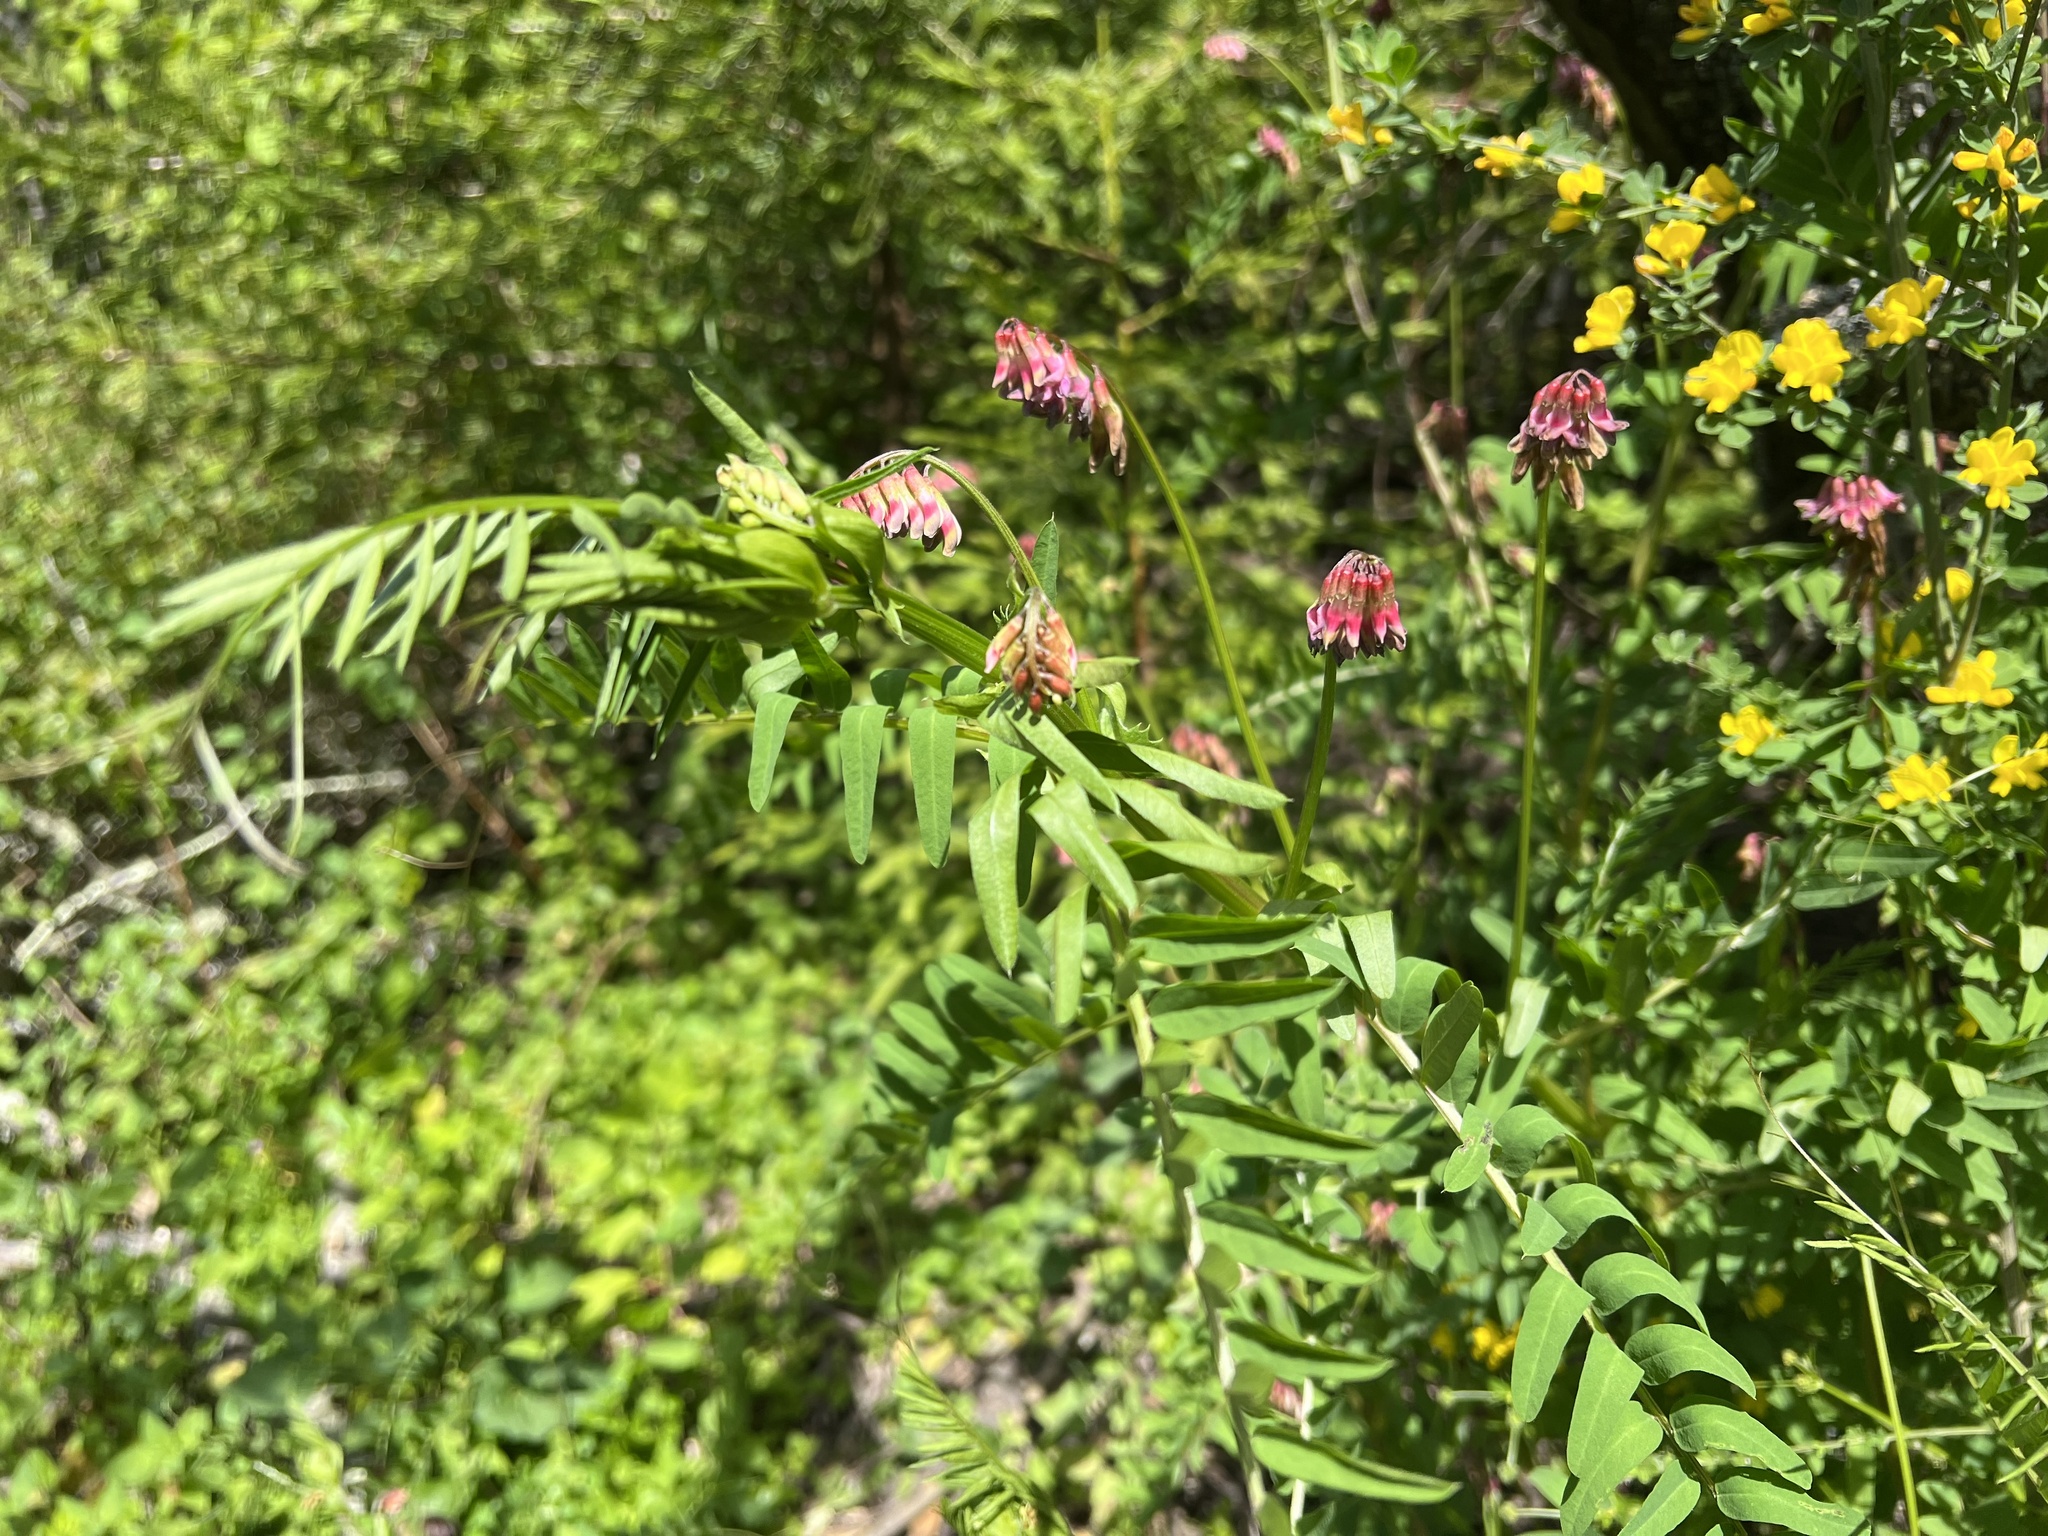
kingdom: Plantae
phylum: Tracheophyta
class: Magnoliopsida
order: Fabales
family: Fabaceae
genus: Vicia
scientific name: Vicia
